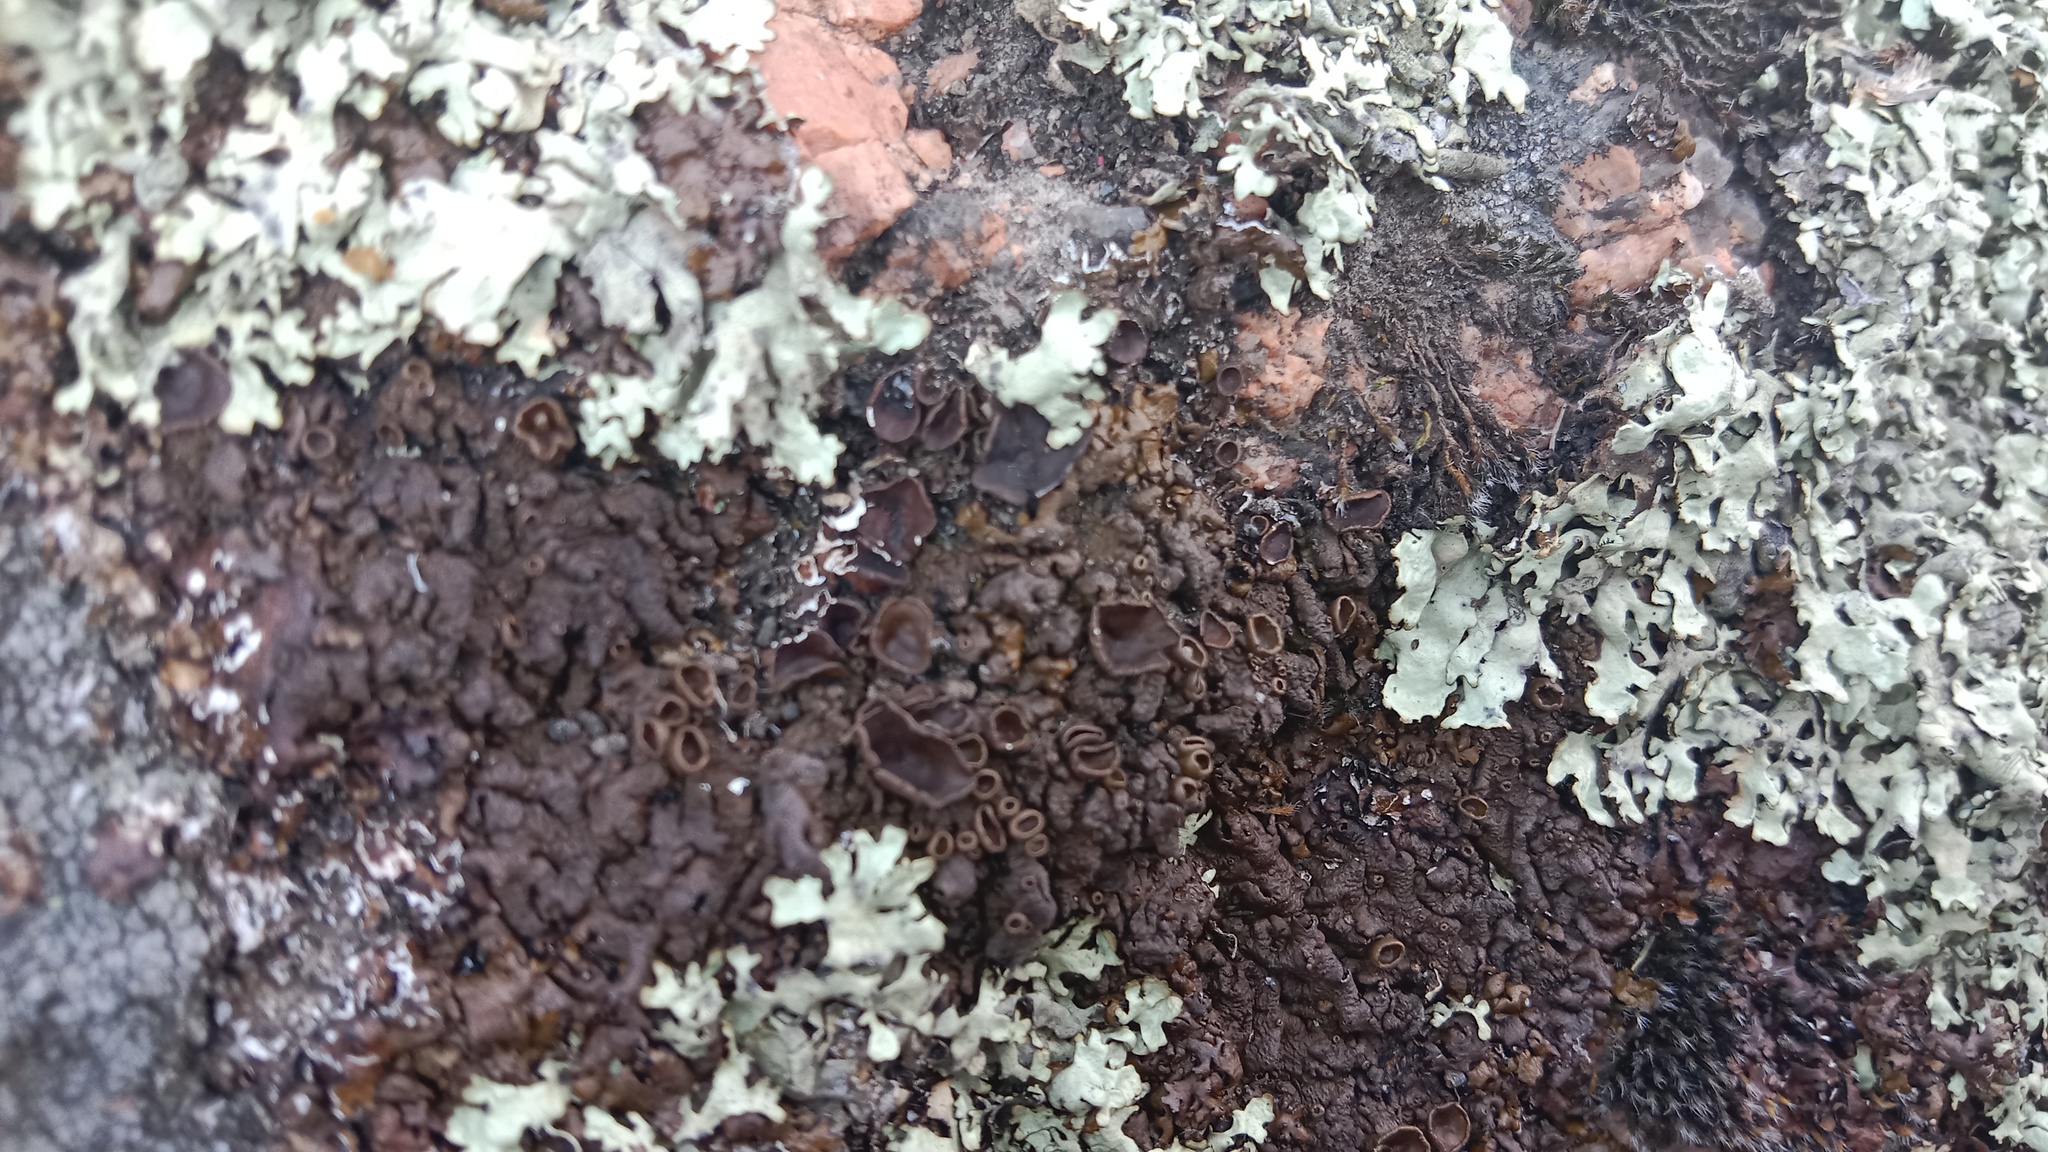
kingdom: Fungi
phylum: Ascomycota
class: Lecanoromycetes
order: Lecanorales
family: Parmeliaceae
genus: Xanthoparmelia
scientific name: Xanthoparmelia pulla
